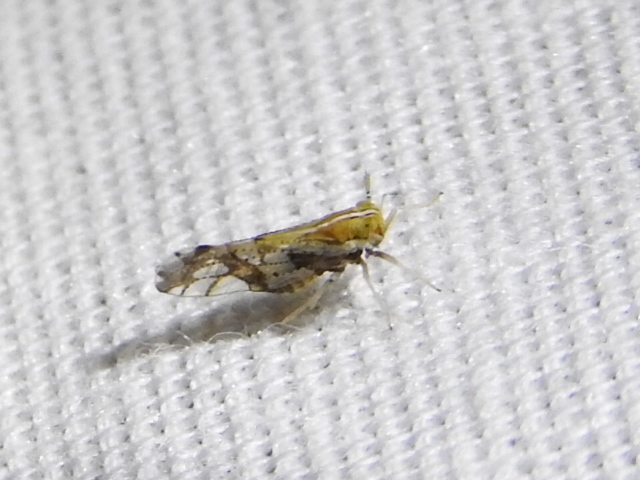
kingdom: Animalia
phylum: Arthropoda
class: Insecta
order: Hemiptera
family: Delphacidae
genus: Liburniella
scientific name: Liburniella ornata
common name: Ornate planthopper
